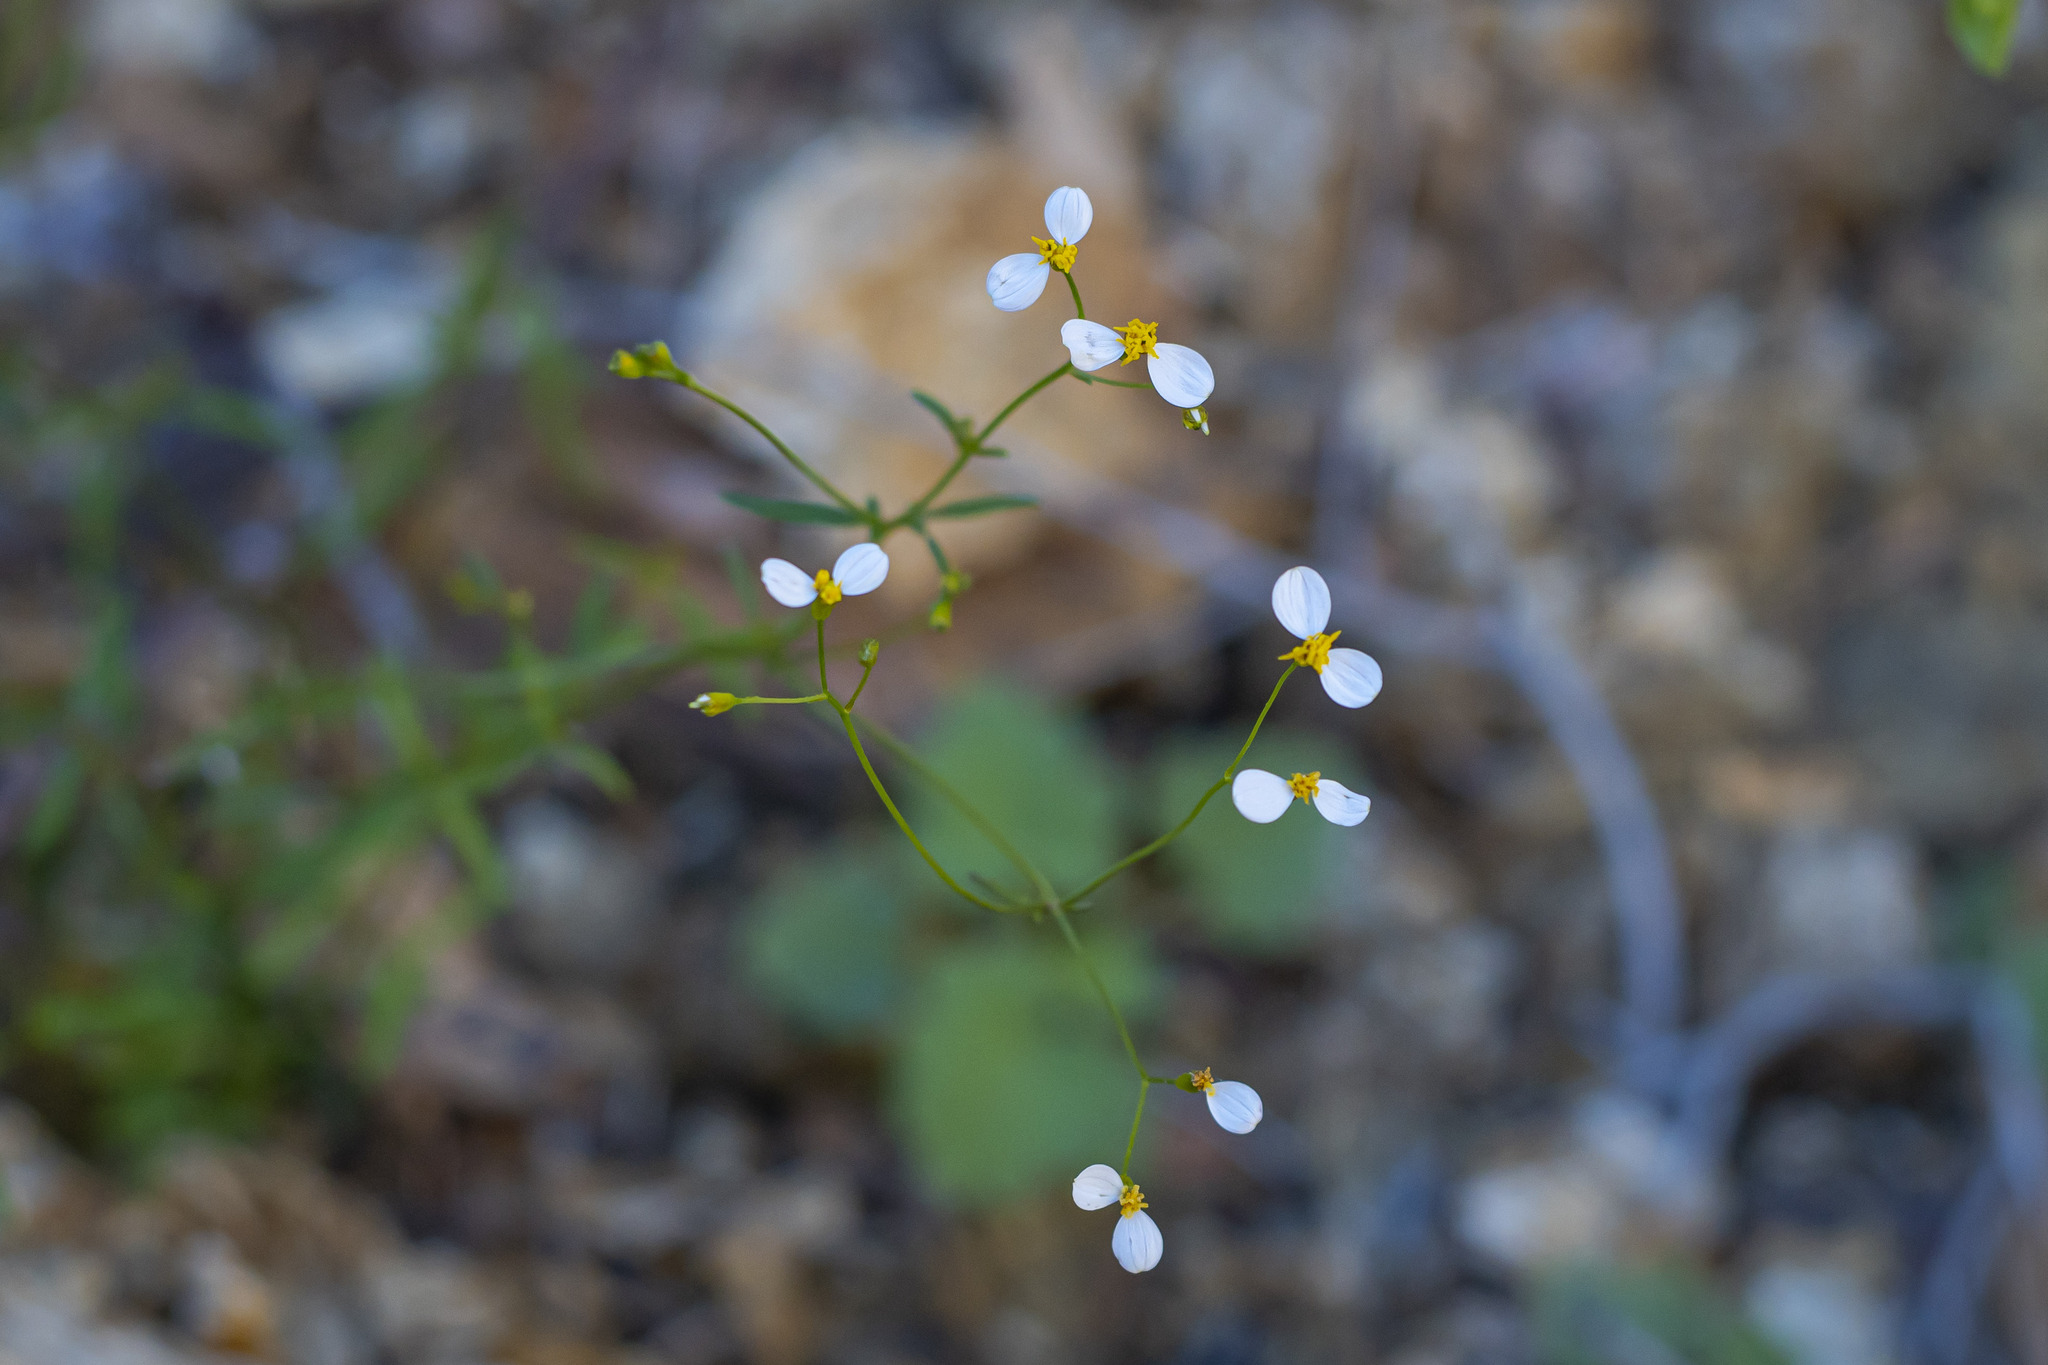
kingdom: Plantae
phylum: Tracheophyta
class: Magnoliopsida
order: Asterales
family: Asteraceae
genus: Coreocarpus
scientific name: Coreocarpus parthenioides
